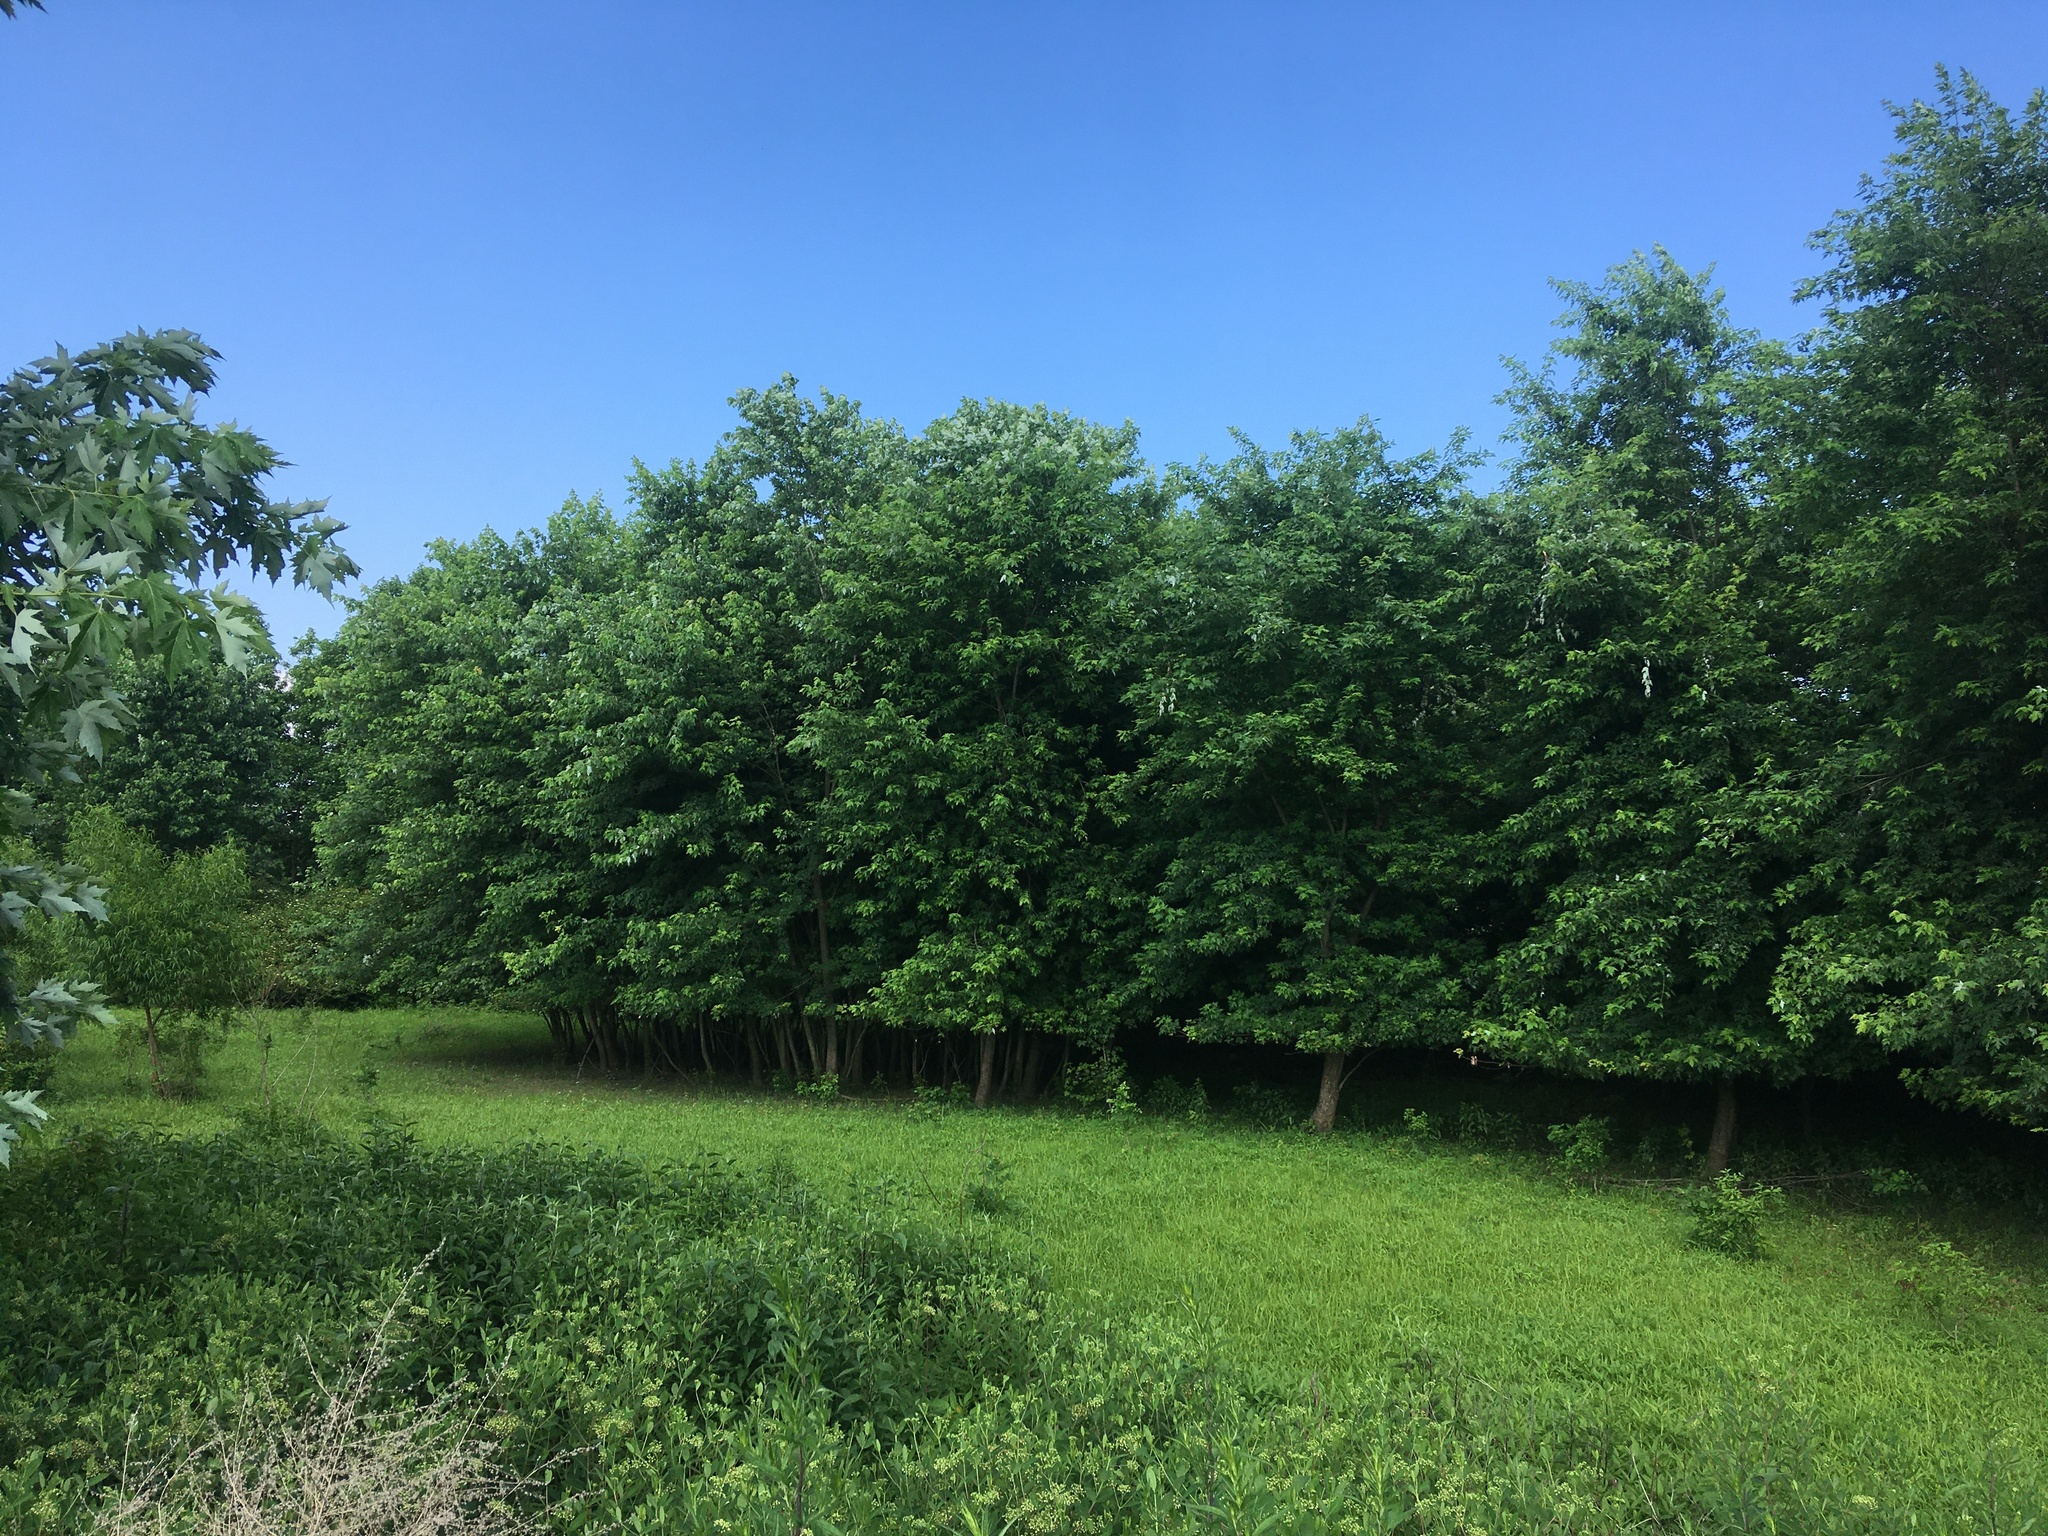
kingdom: Plantae
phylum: Tracheophyta
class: Magnoliopsida
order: Sapindales
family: Sapindaceae
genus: Acer
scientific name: Acer saccharinum
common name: Silver maple
